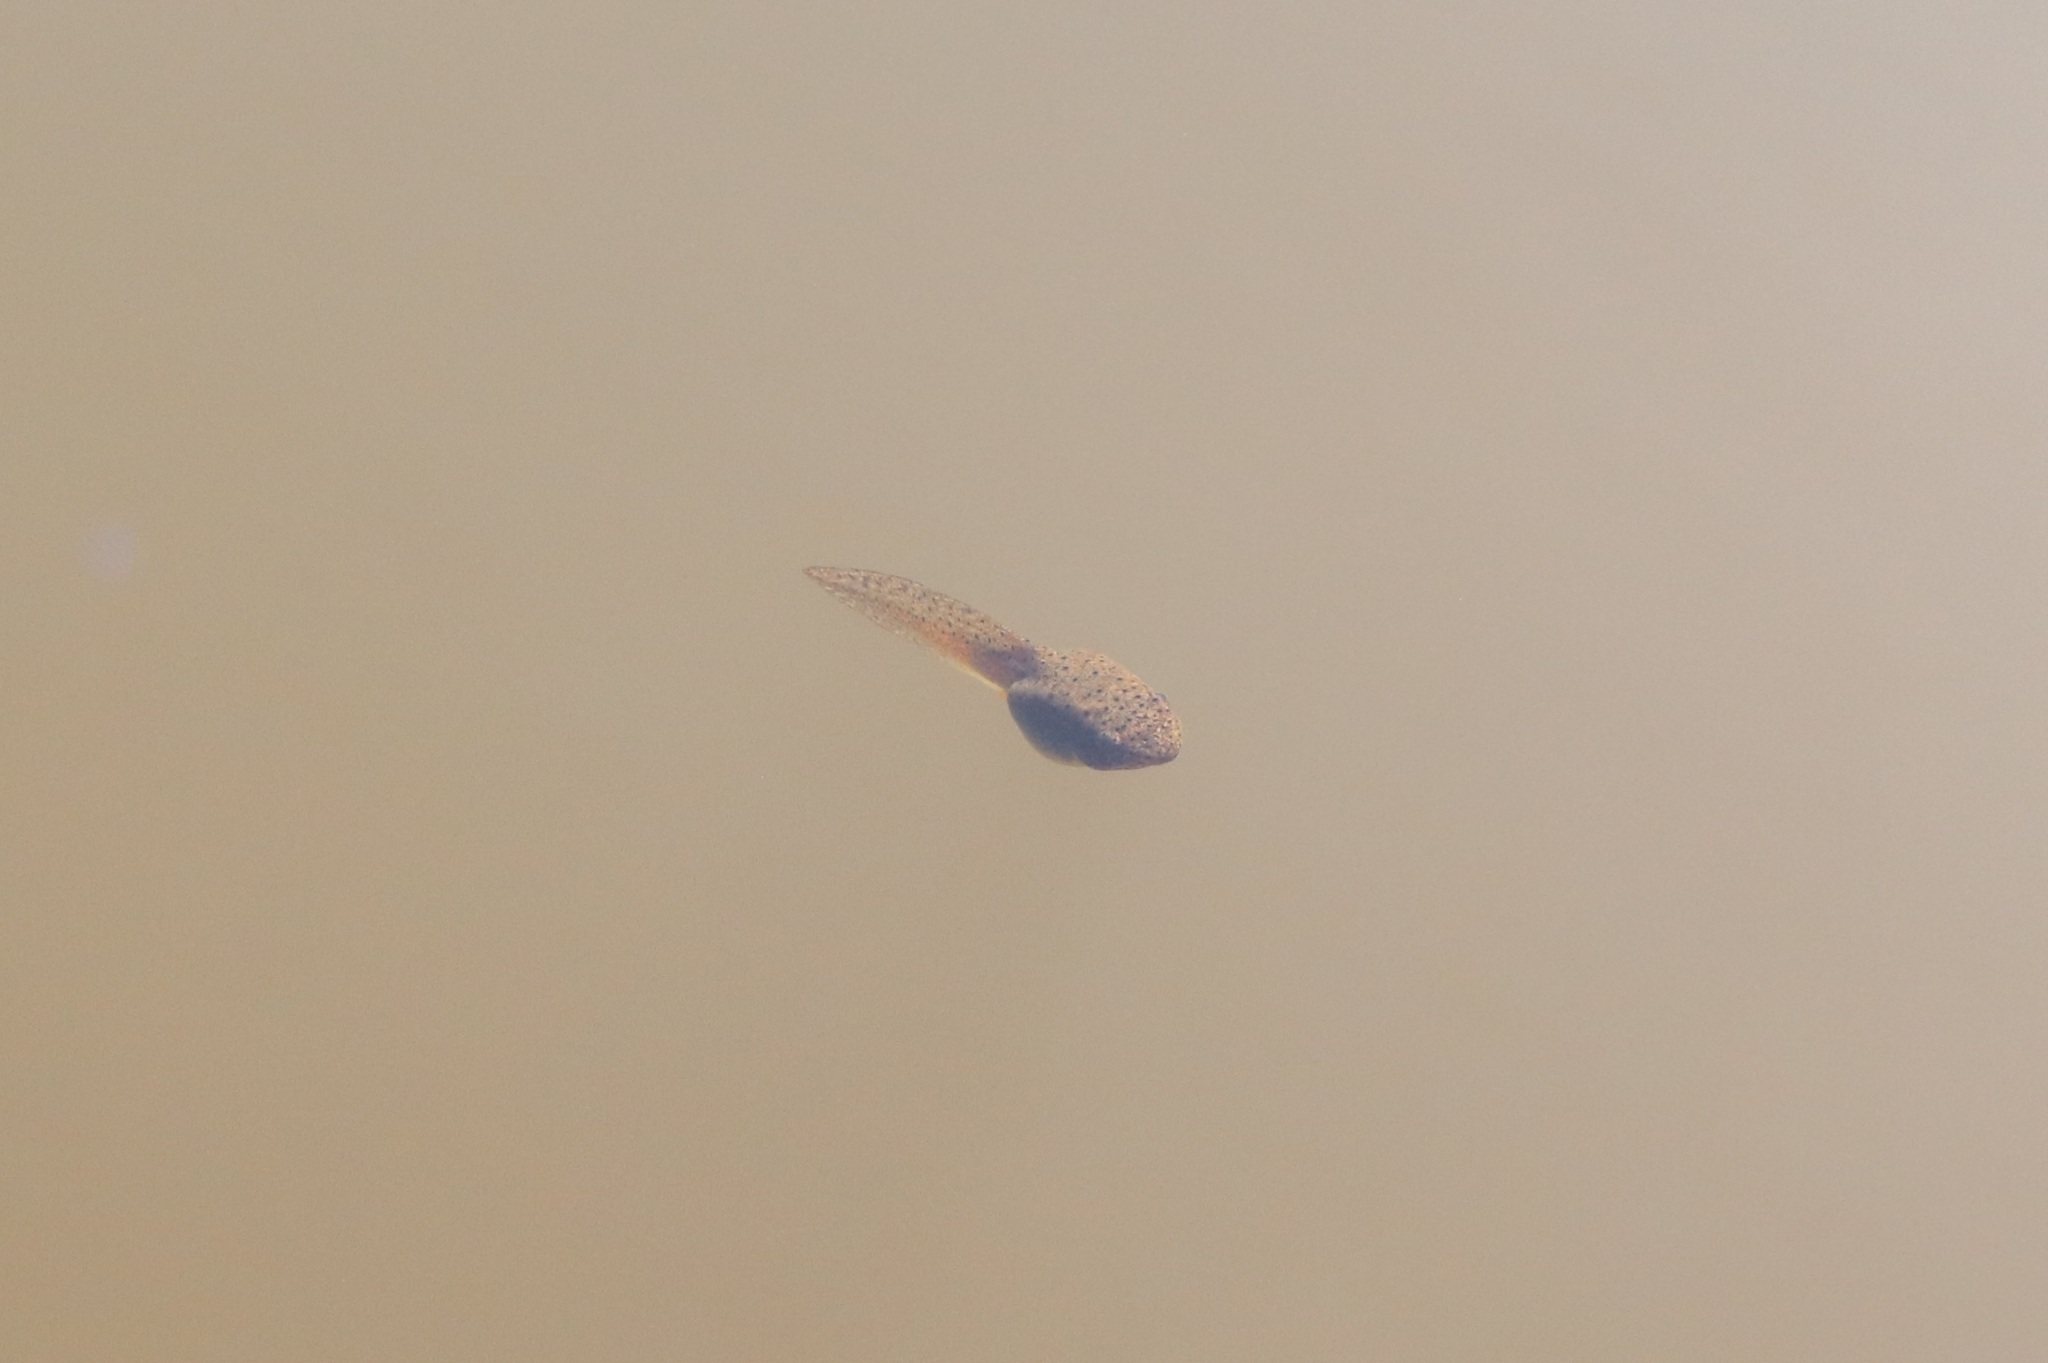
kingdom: Animalia
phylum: Chordata
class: Amphibia
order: Anura
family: Ranidae
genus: Lithobates
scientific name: Lithobates catesbeianus
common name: American bullfrog
